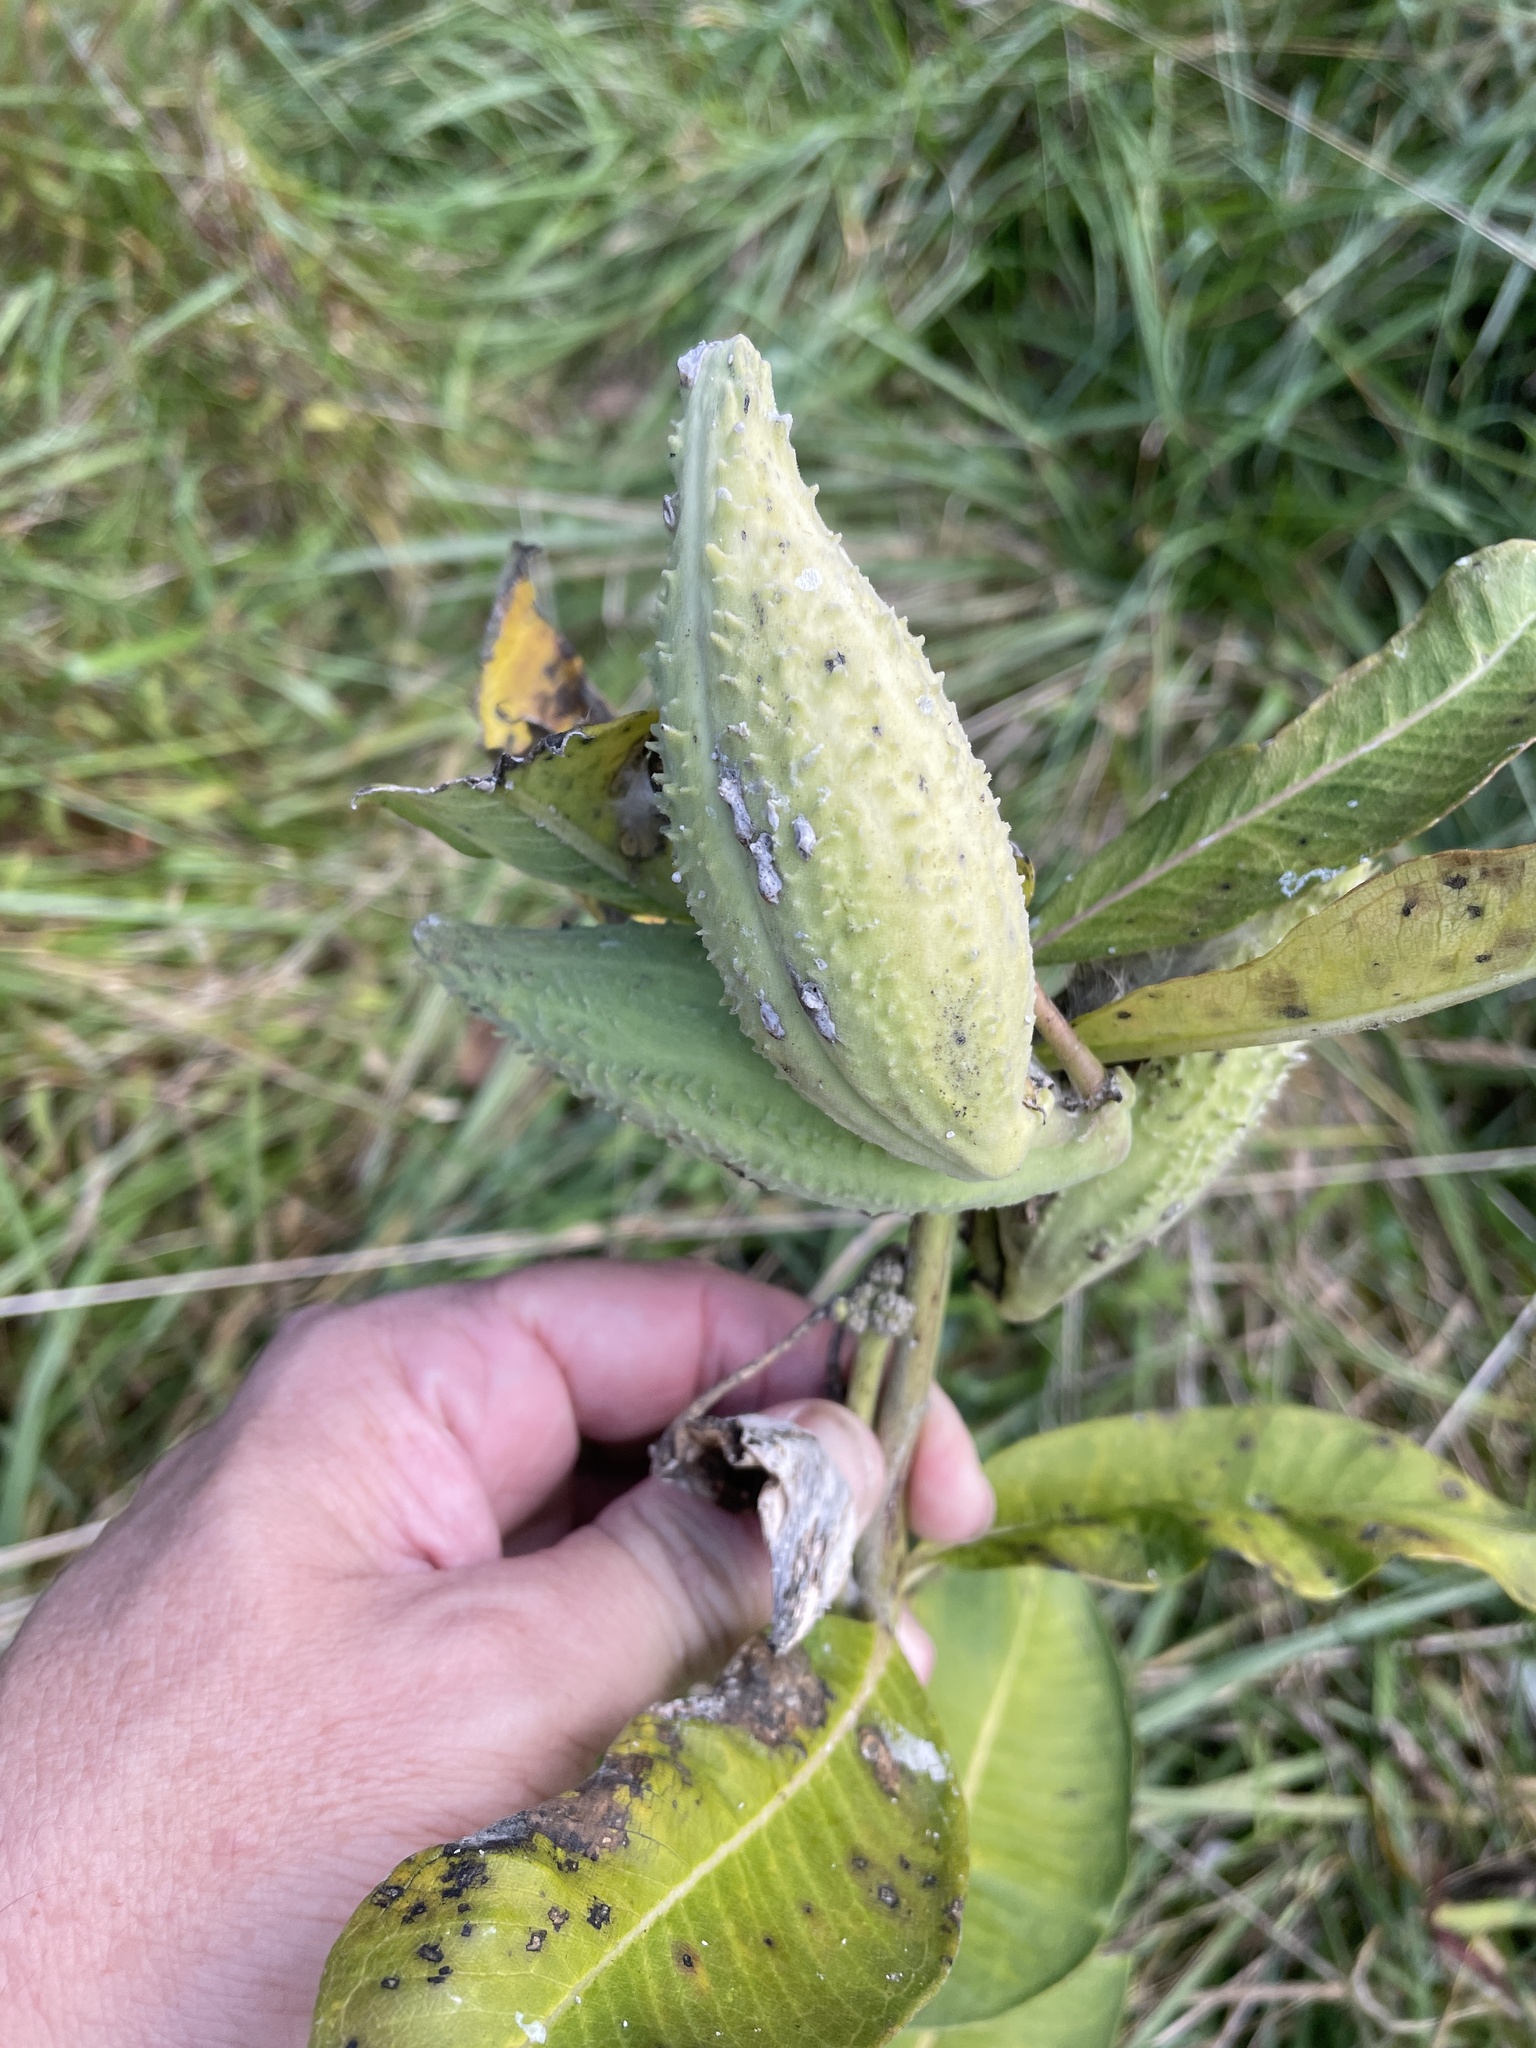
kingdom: Plantae
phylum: Tracheophyta
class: Magnoliopsida
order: Gentianales
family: Apocynaceae
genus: Asclepias
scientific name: Asclepias syriaca
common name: Common milkweed
